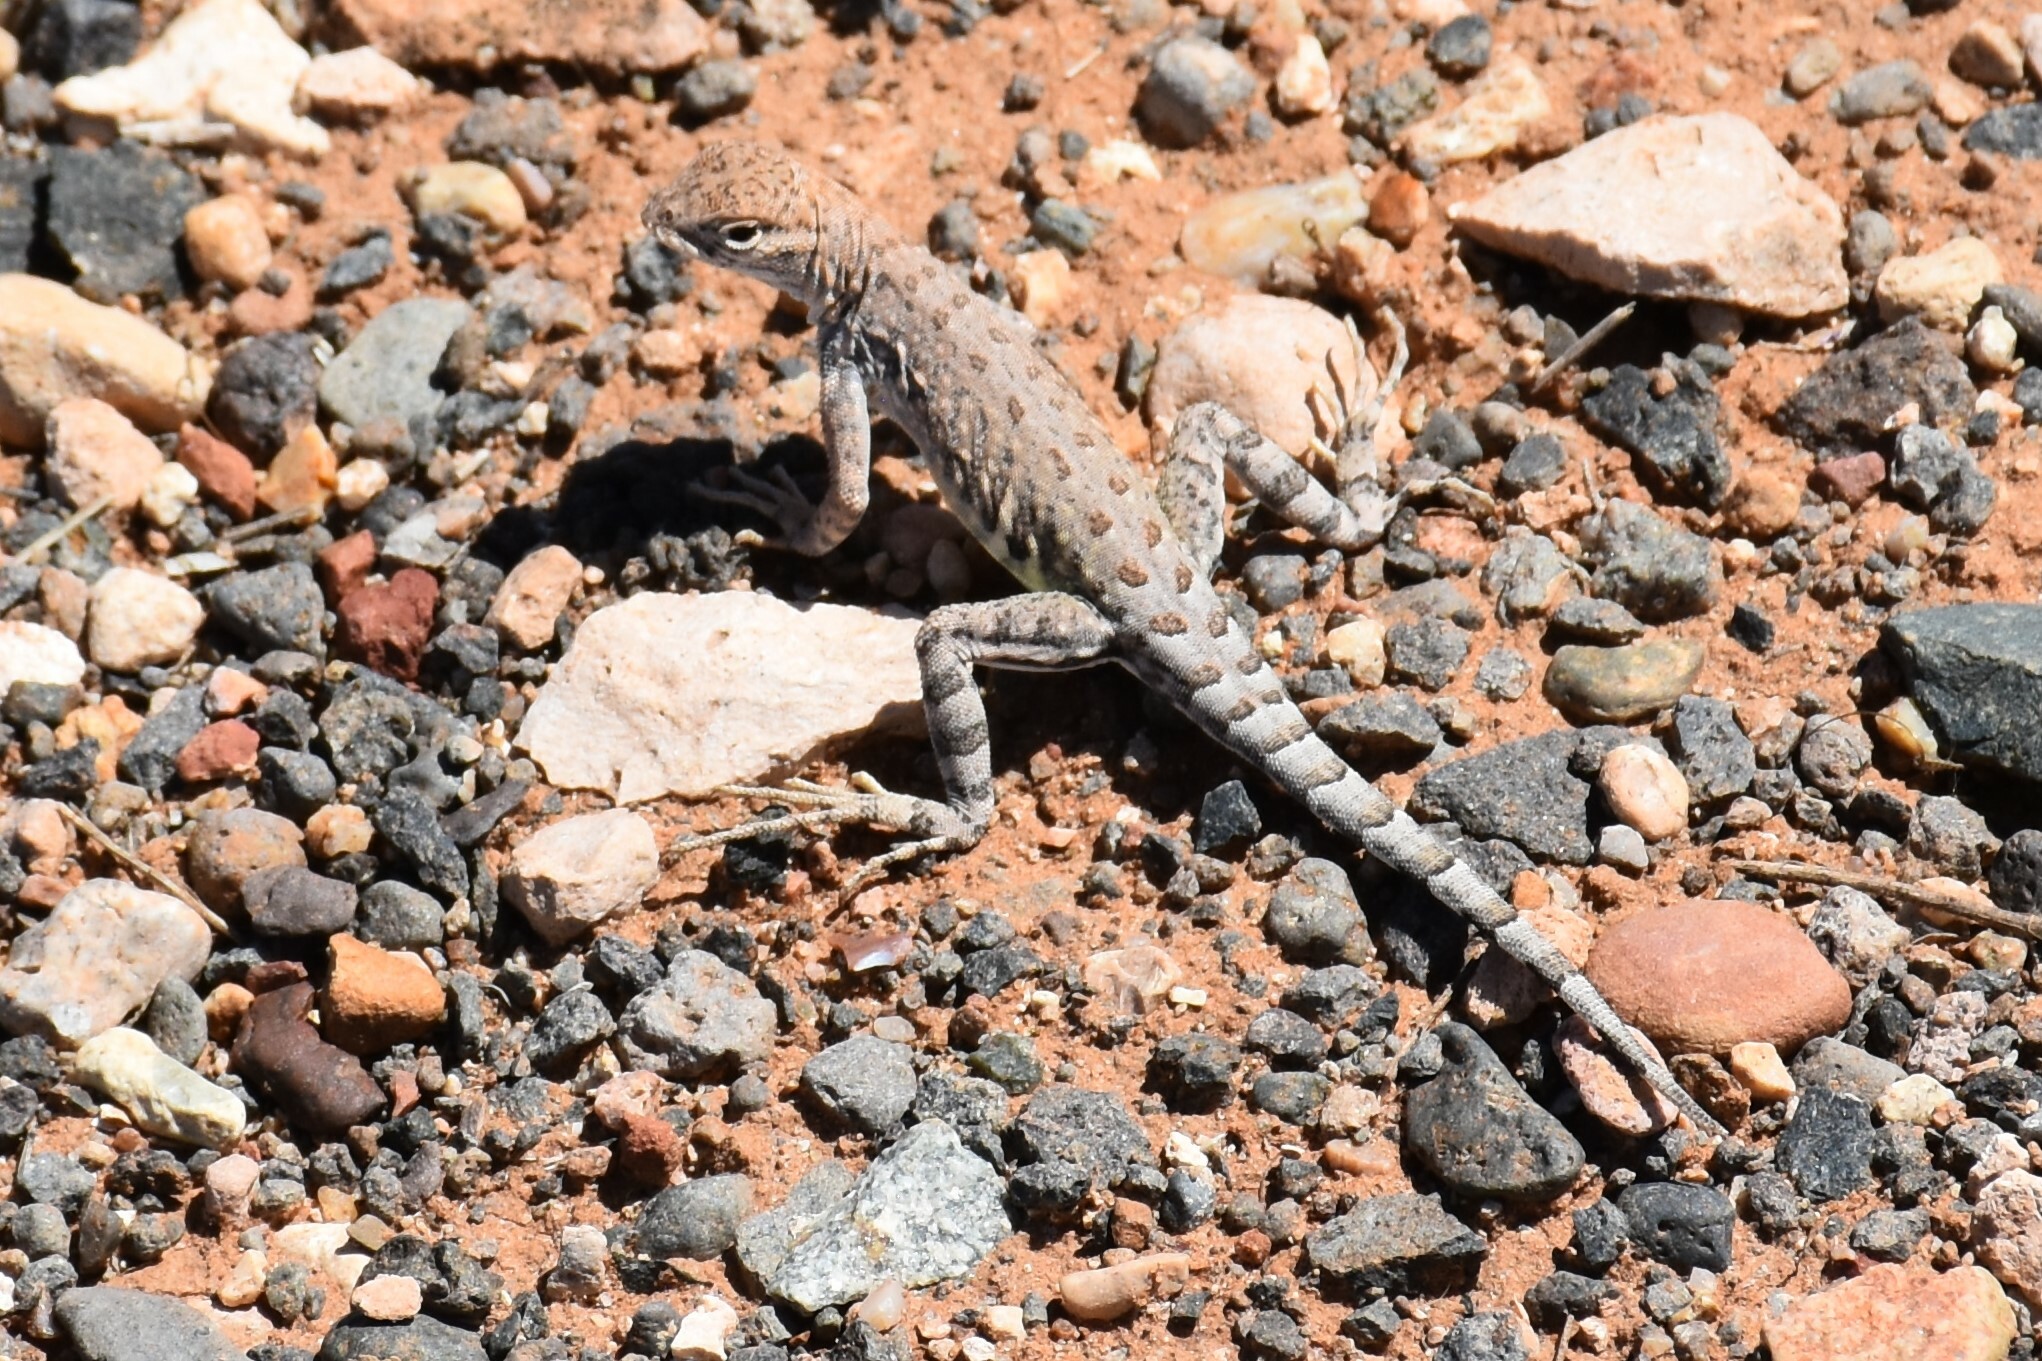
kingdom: Animalia
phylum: Chordata
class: Squamata
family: Phrynosomatidae
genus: Cophosaurus
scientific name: Cophosaurus texanus
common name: Greater earless lizard
